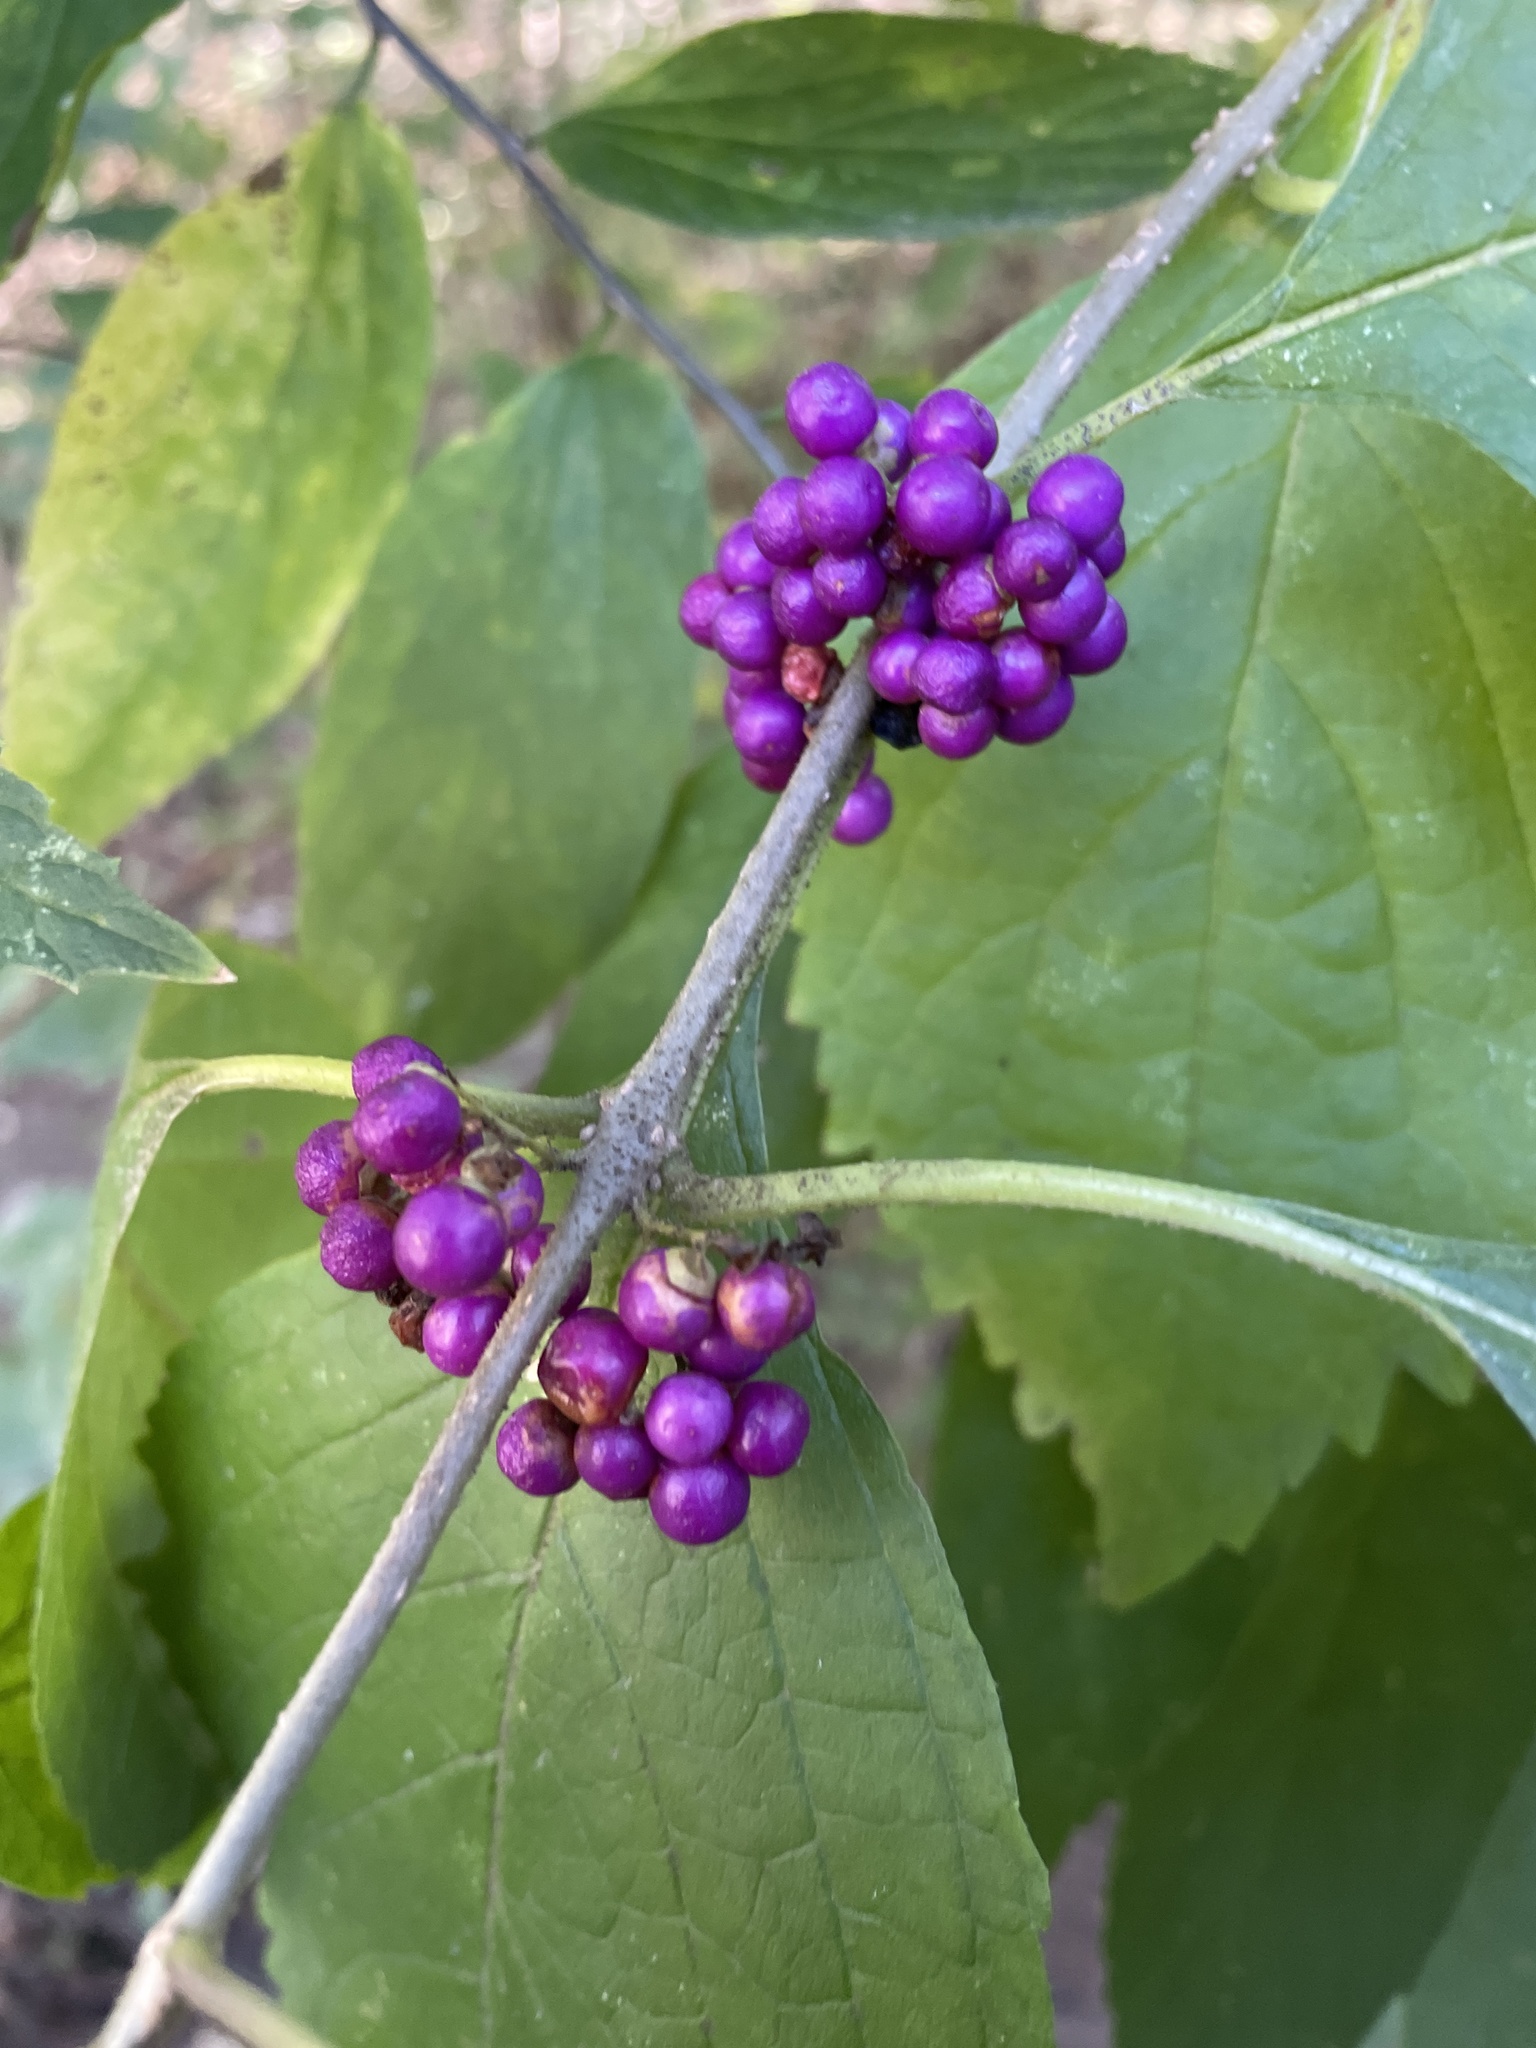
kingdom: Plantae
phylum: Tracheophyta
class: Magnoliopsida
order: Lamiales
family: Lamiaceae
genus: Callicarpa
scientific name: Callicarpa americana
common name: American beautyberry
